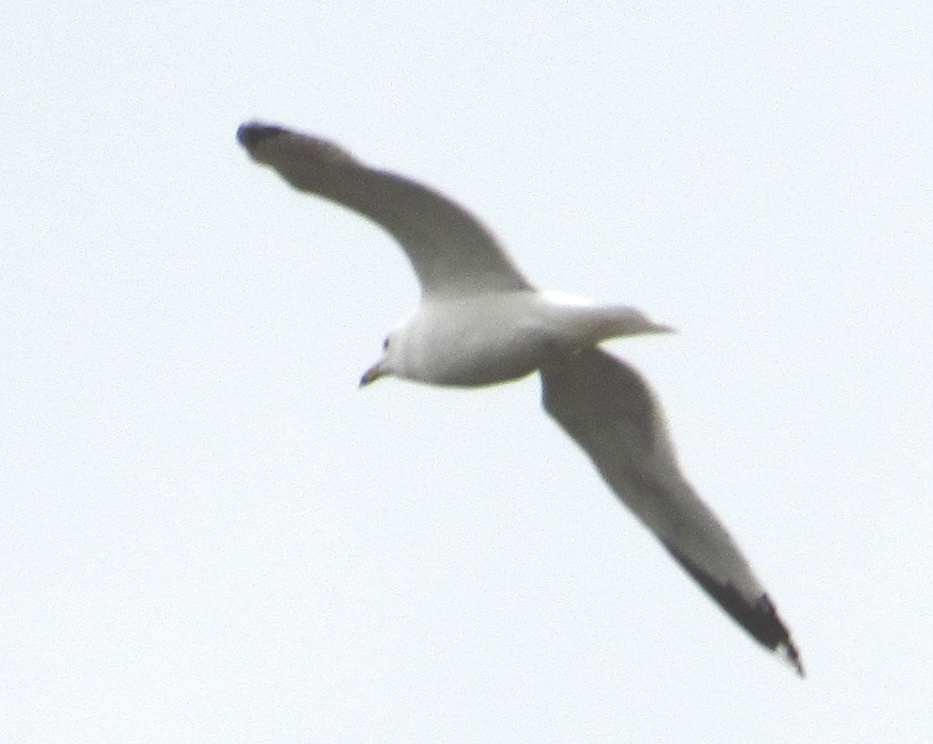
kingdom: Animalia
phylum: Chordata
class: Aves
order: Charadriiformes
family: Laridae
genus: Larus
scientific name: Larus delawarensis
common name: Ring-billed gull
